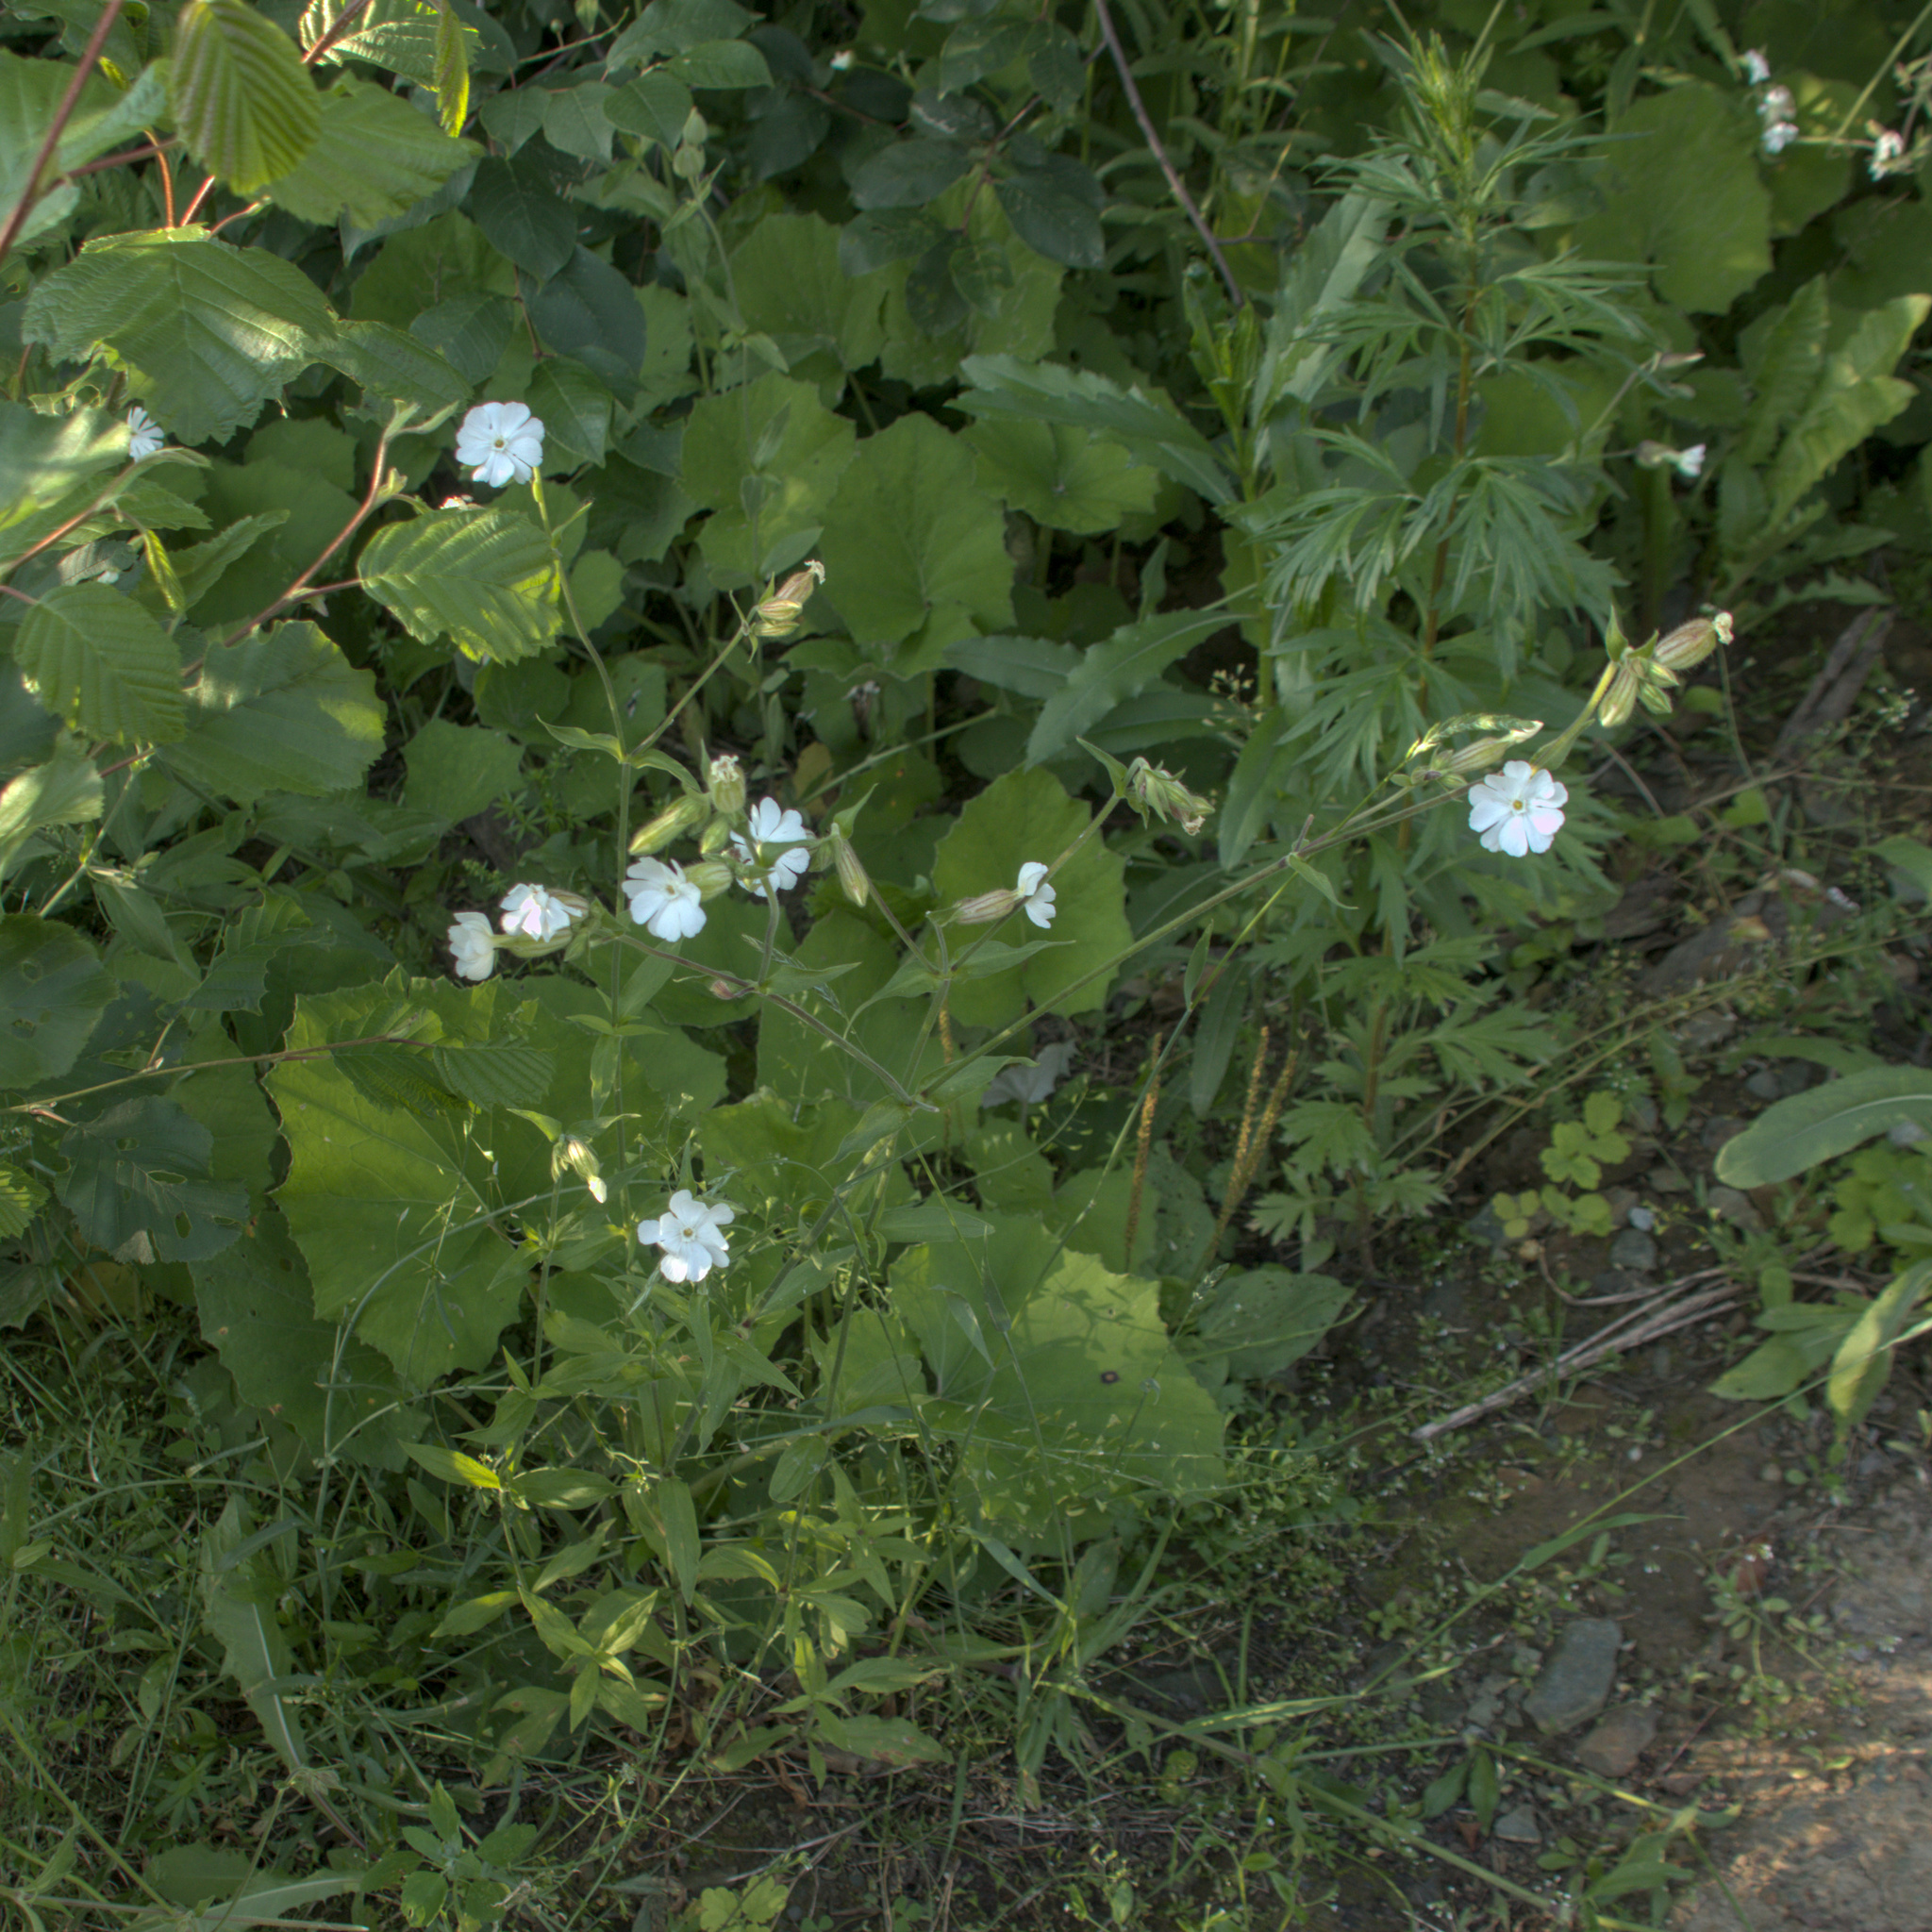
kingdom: Plantae
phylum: Tracheophyta
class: Magnoliopsida
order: Caryophyllales
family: Caryophyllaceae
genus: Silene
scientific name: Silene latifolia
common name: White campion
